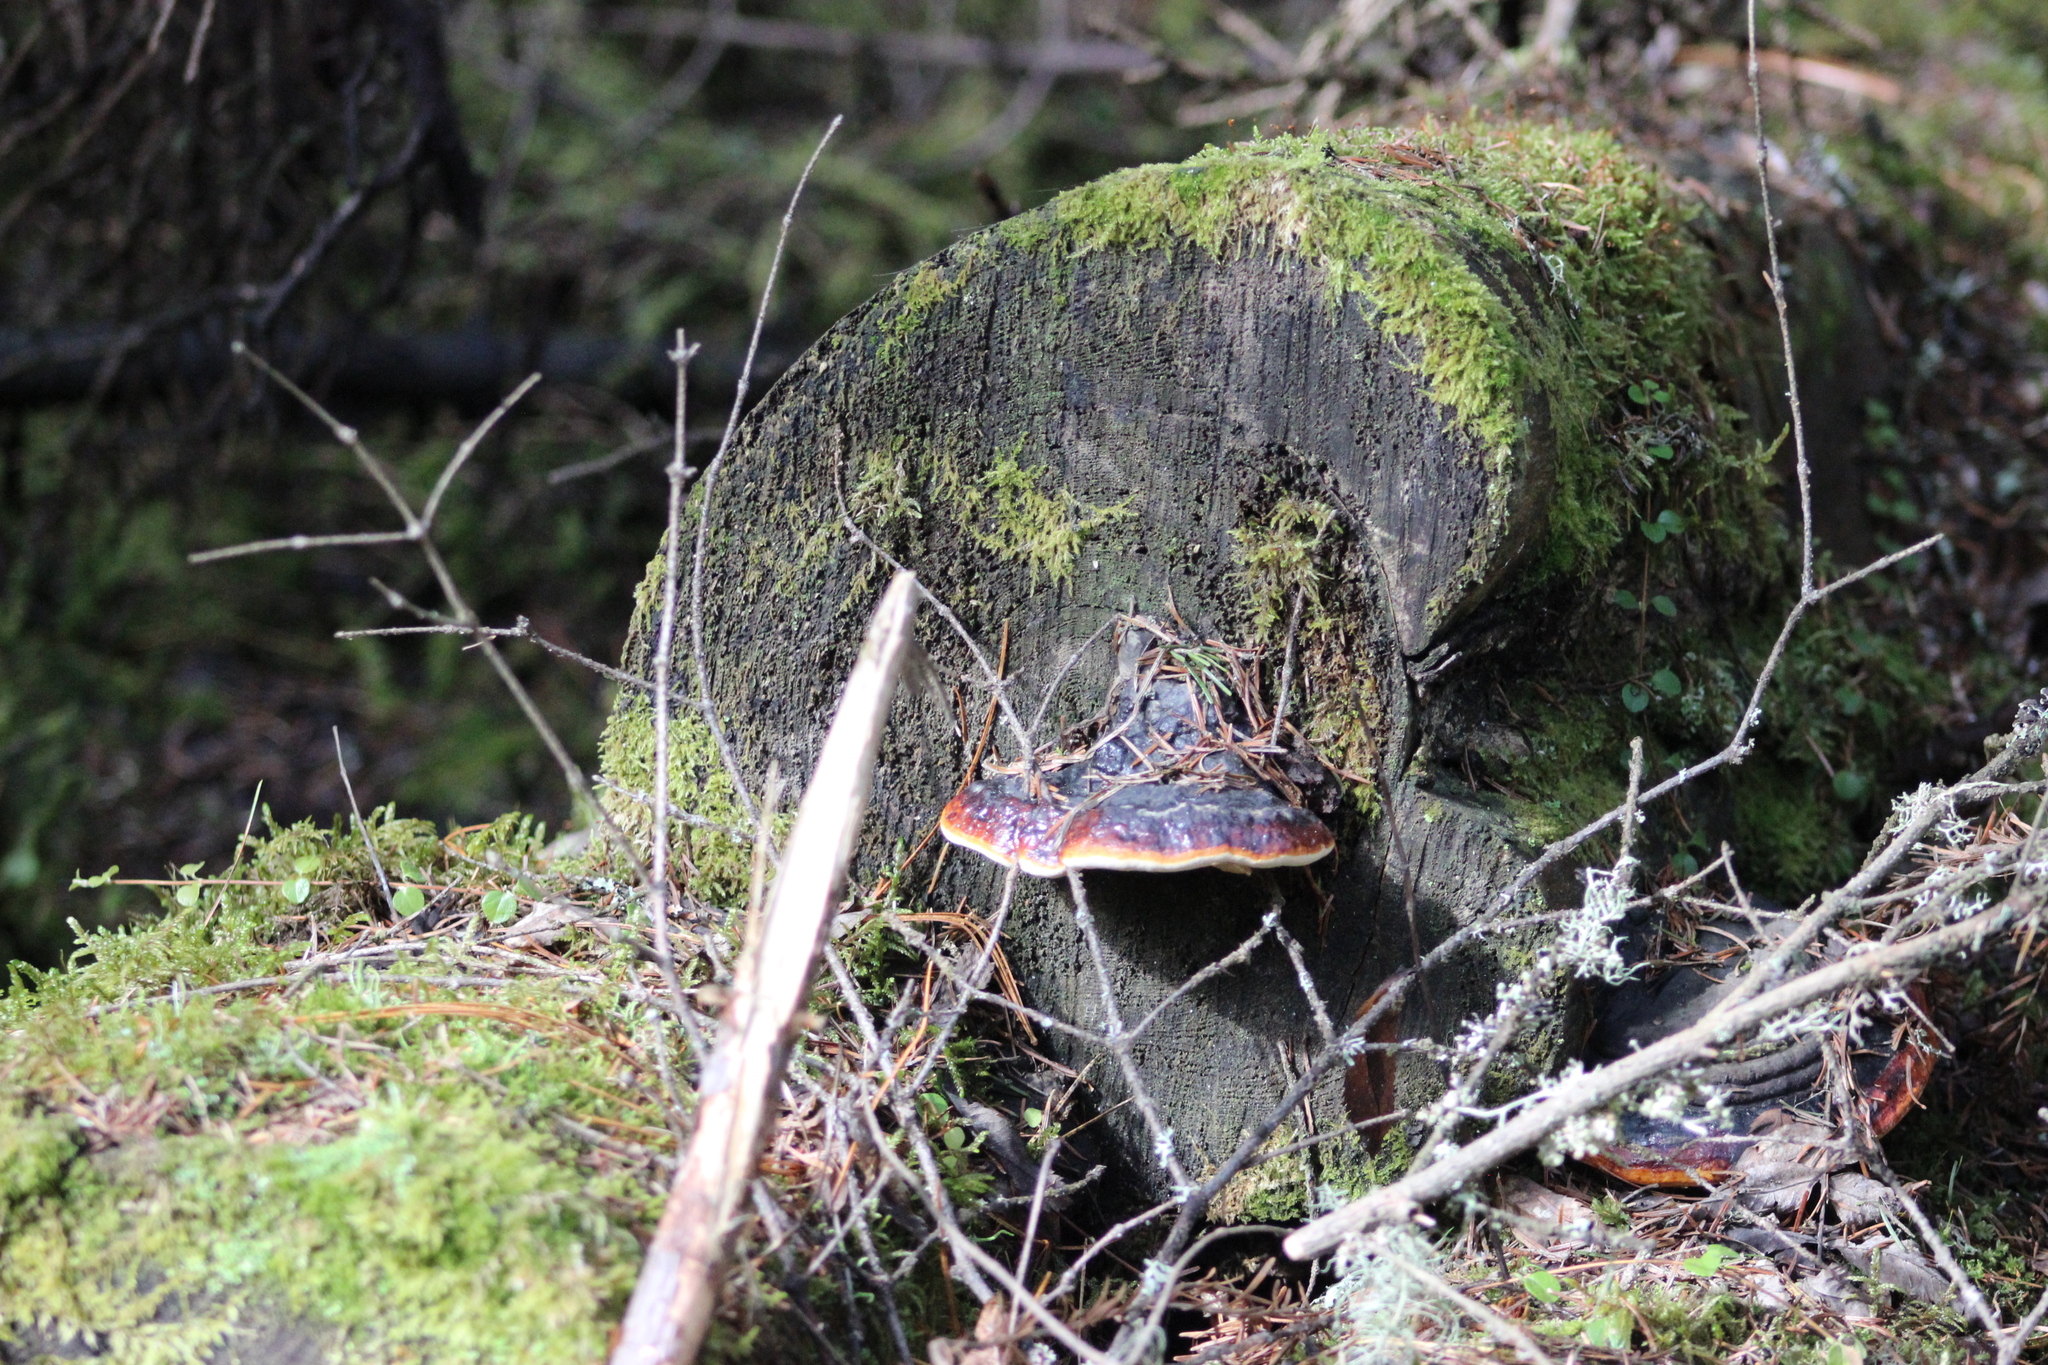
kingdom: Fungi
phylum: Basidiomycota
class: Agaricomycetes
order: Polyporales
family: Fomitopsidaceae
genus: Fomitopsis
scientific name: Fomitopsis pinicola
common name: Red-belted bracket
